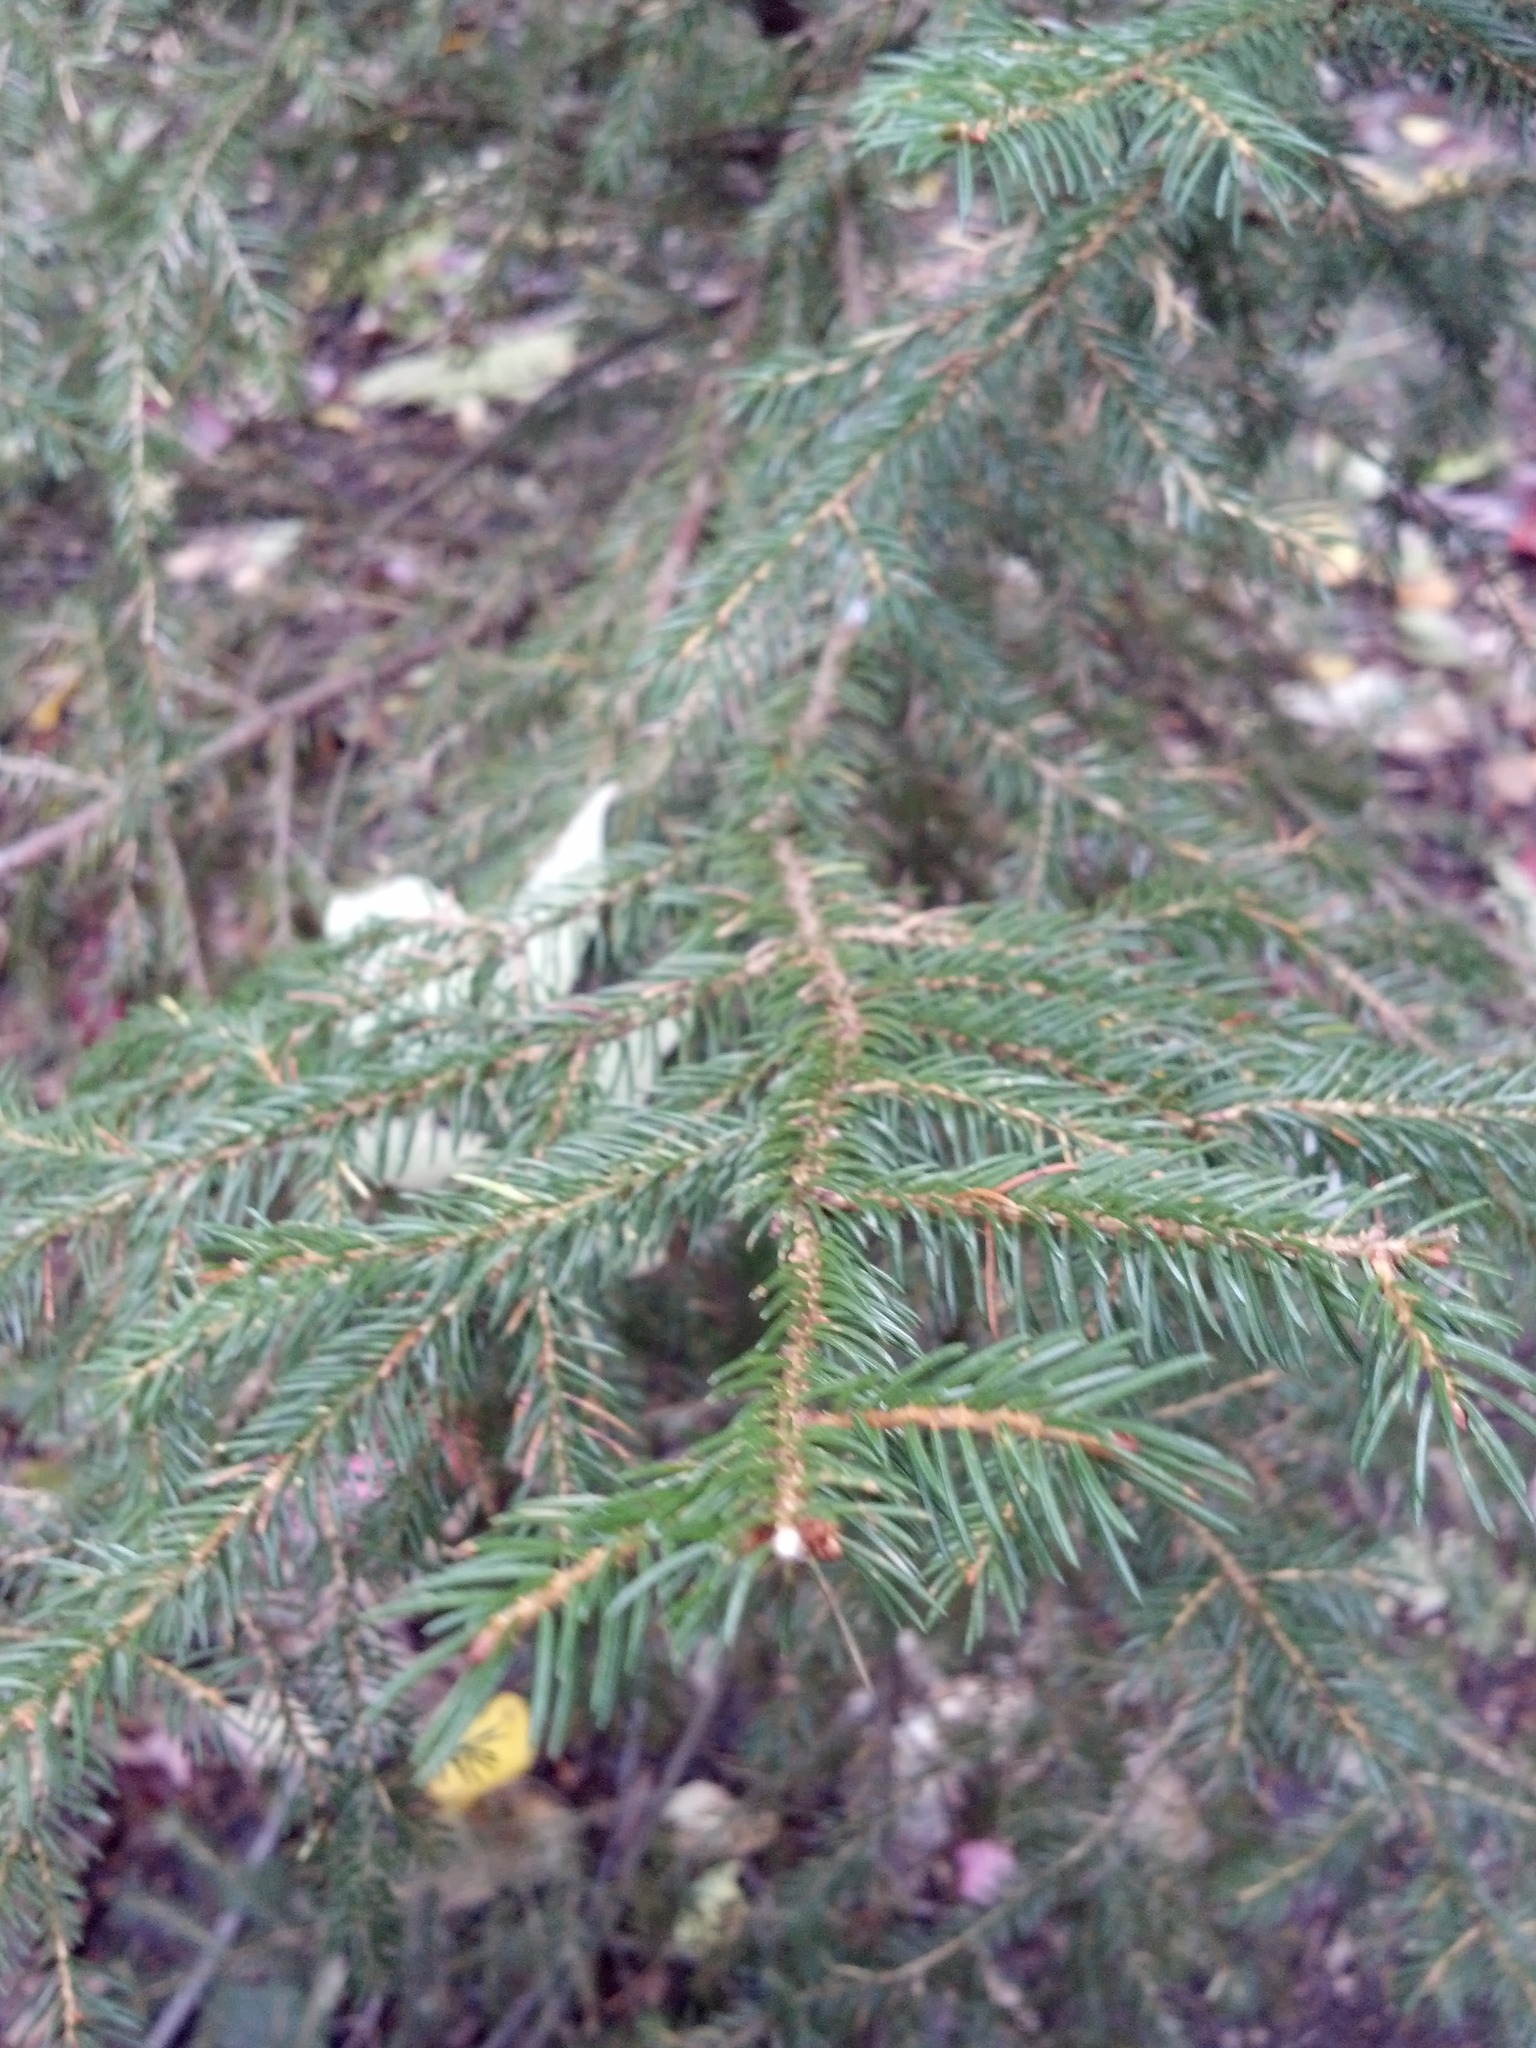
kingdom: Plantae
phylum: Tracheophyta
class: Pinopsida
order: Pinales
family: Pinaceae
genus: Picea
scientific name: Picea rubens
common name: Red spruce
